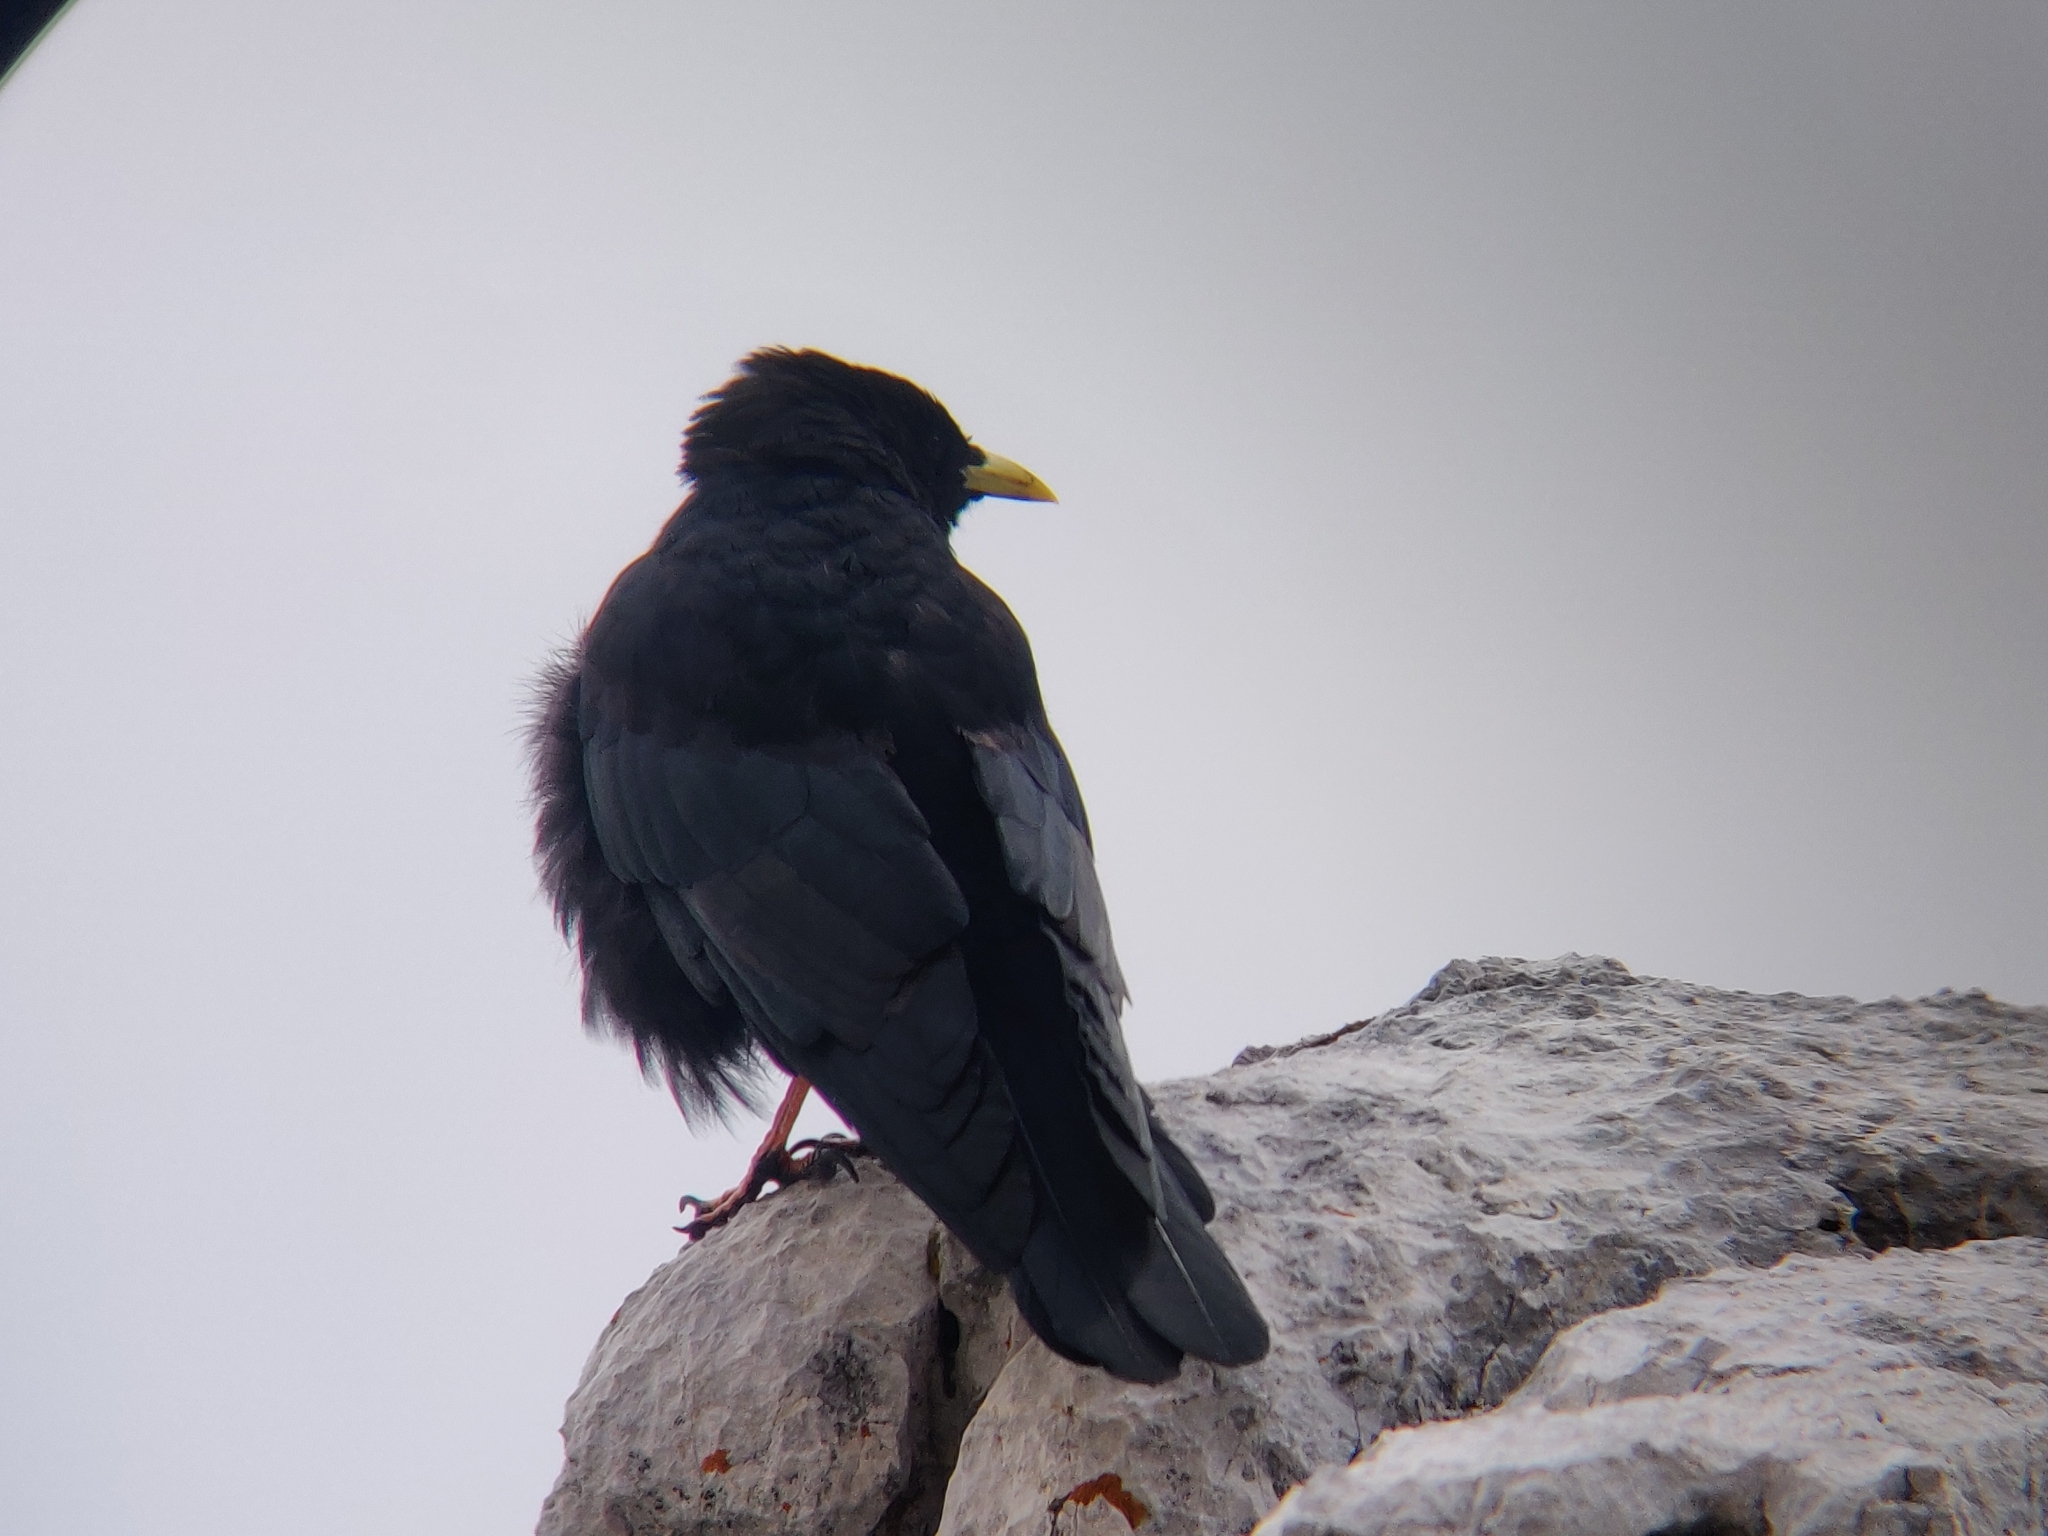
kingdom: Animalia
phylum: Chordata
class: Aves
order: Passeriformes
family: Corvidae
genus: Pyrrhocorax
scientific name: Pyrrhocorax graculus
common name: Alpine chough
